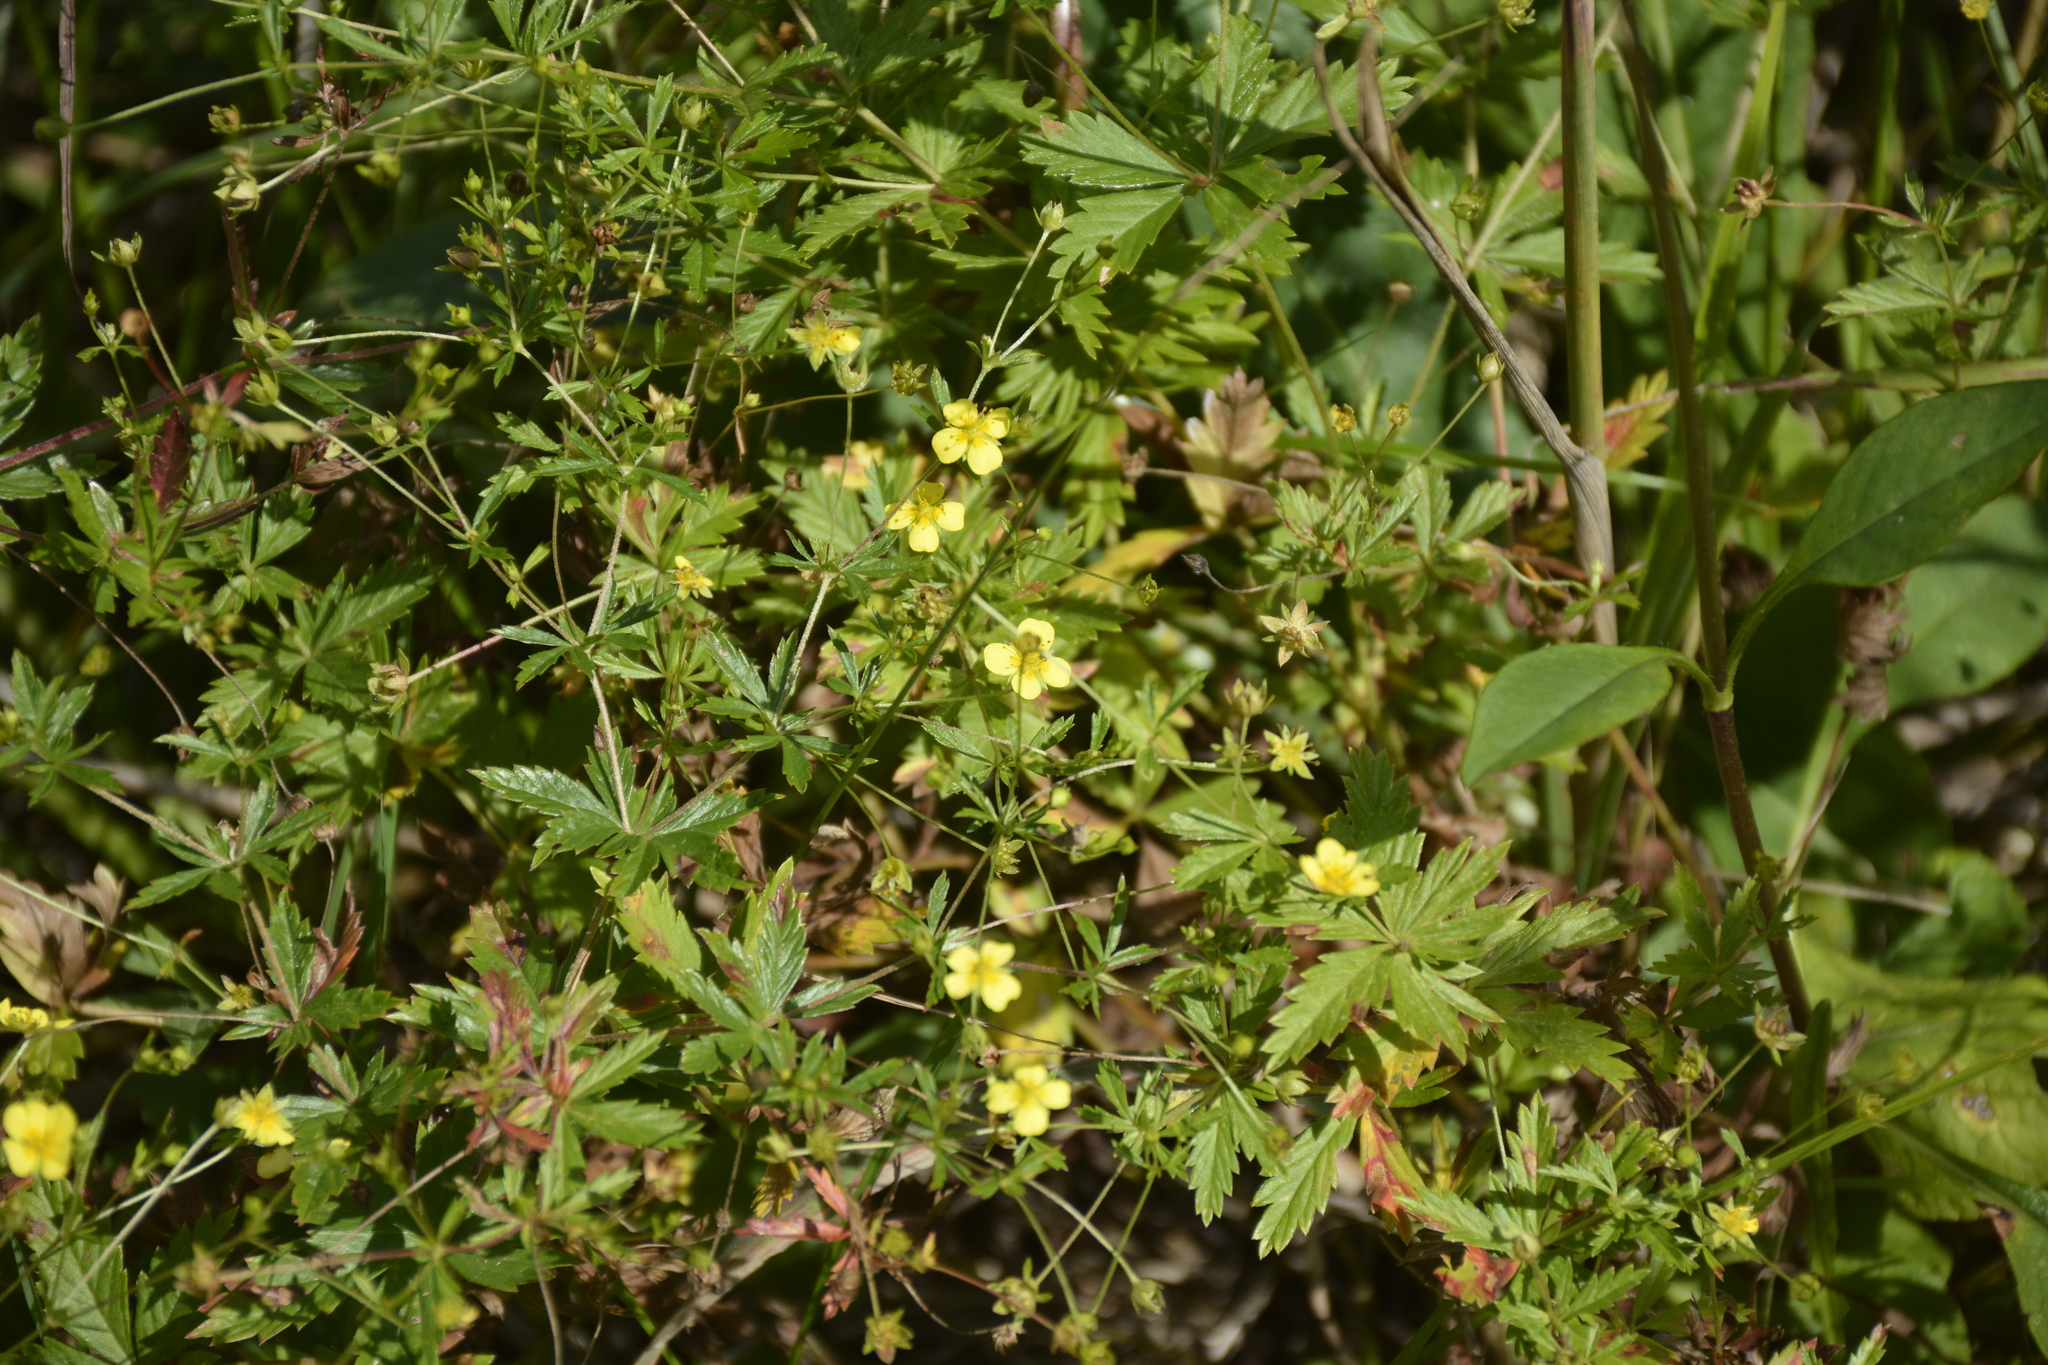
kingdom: Plantae
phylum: Tracheophyta
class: Magnoliopsida
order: Rosales
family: Rosaceae
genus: Potentilla
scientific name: Potentilla erecta
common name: Tormentil
